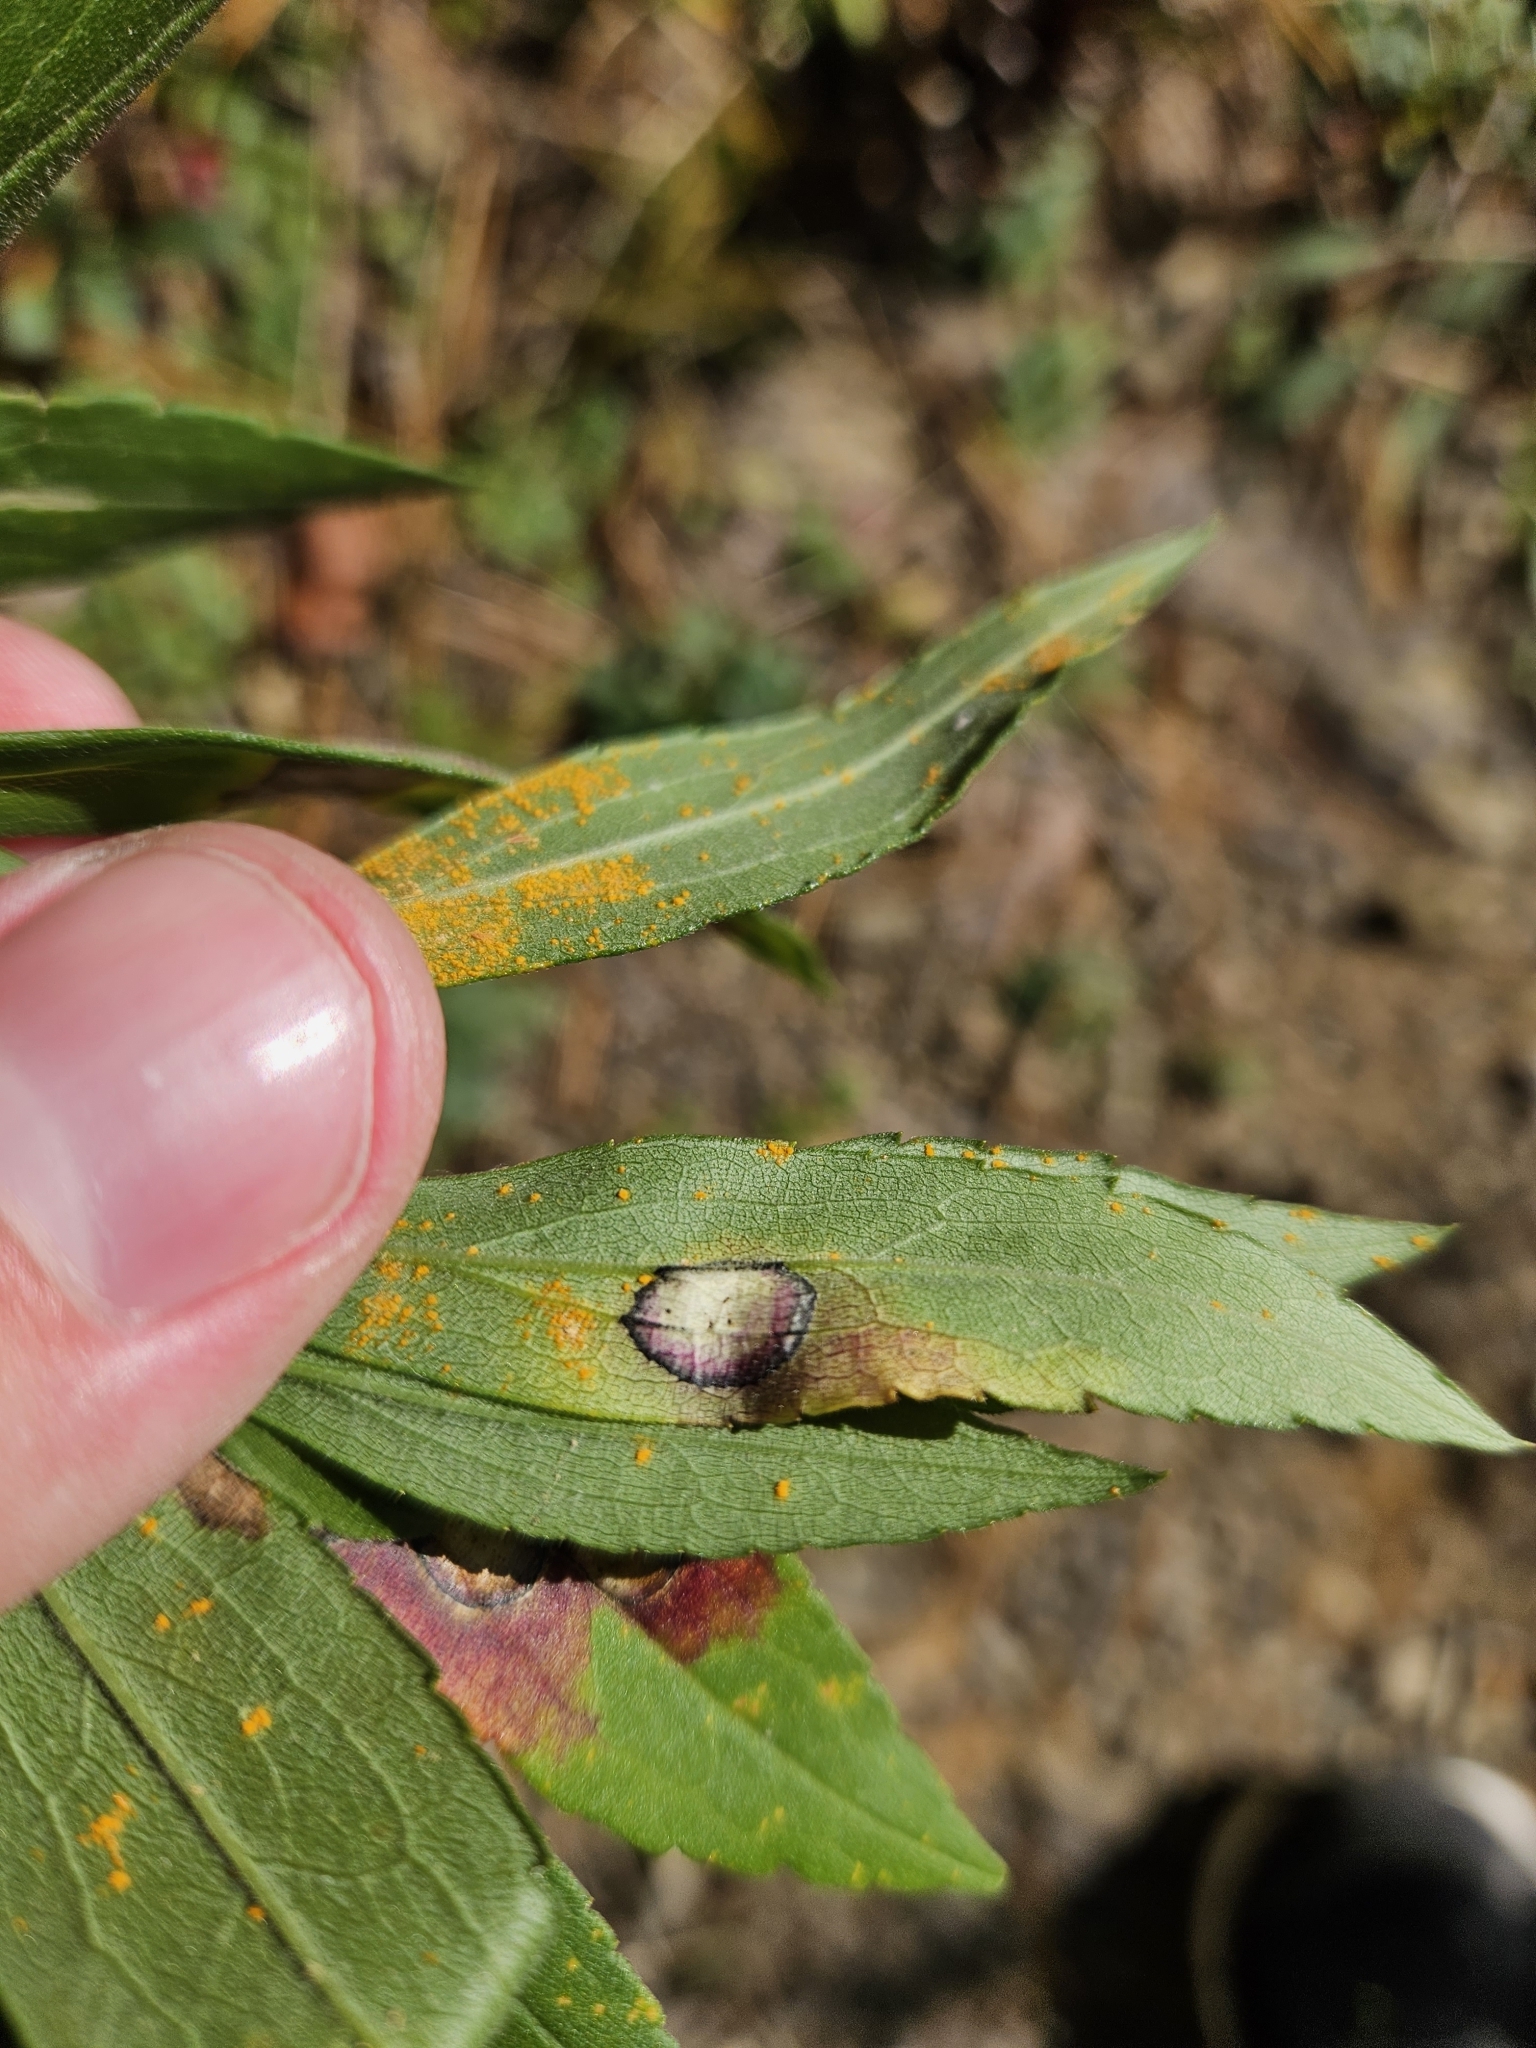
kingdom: Animalia
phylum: Arthropoda
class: Insecta
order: Diptera
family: Cecidomyiidae
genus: Asteromyia
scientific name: Asteromyia carbonifera
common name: Carbonifera goldenrod gall midge
